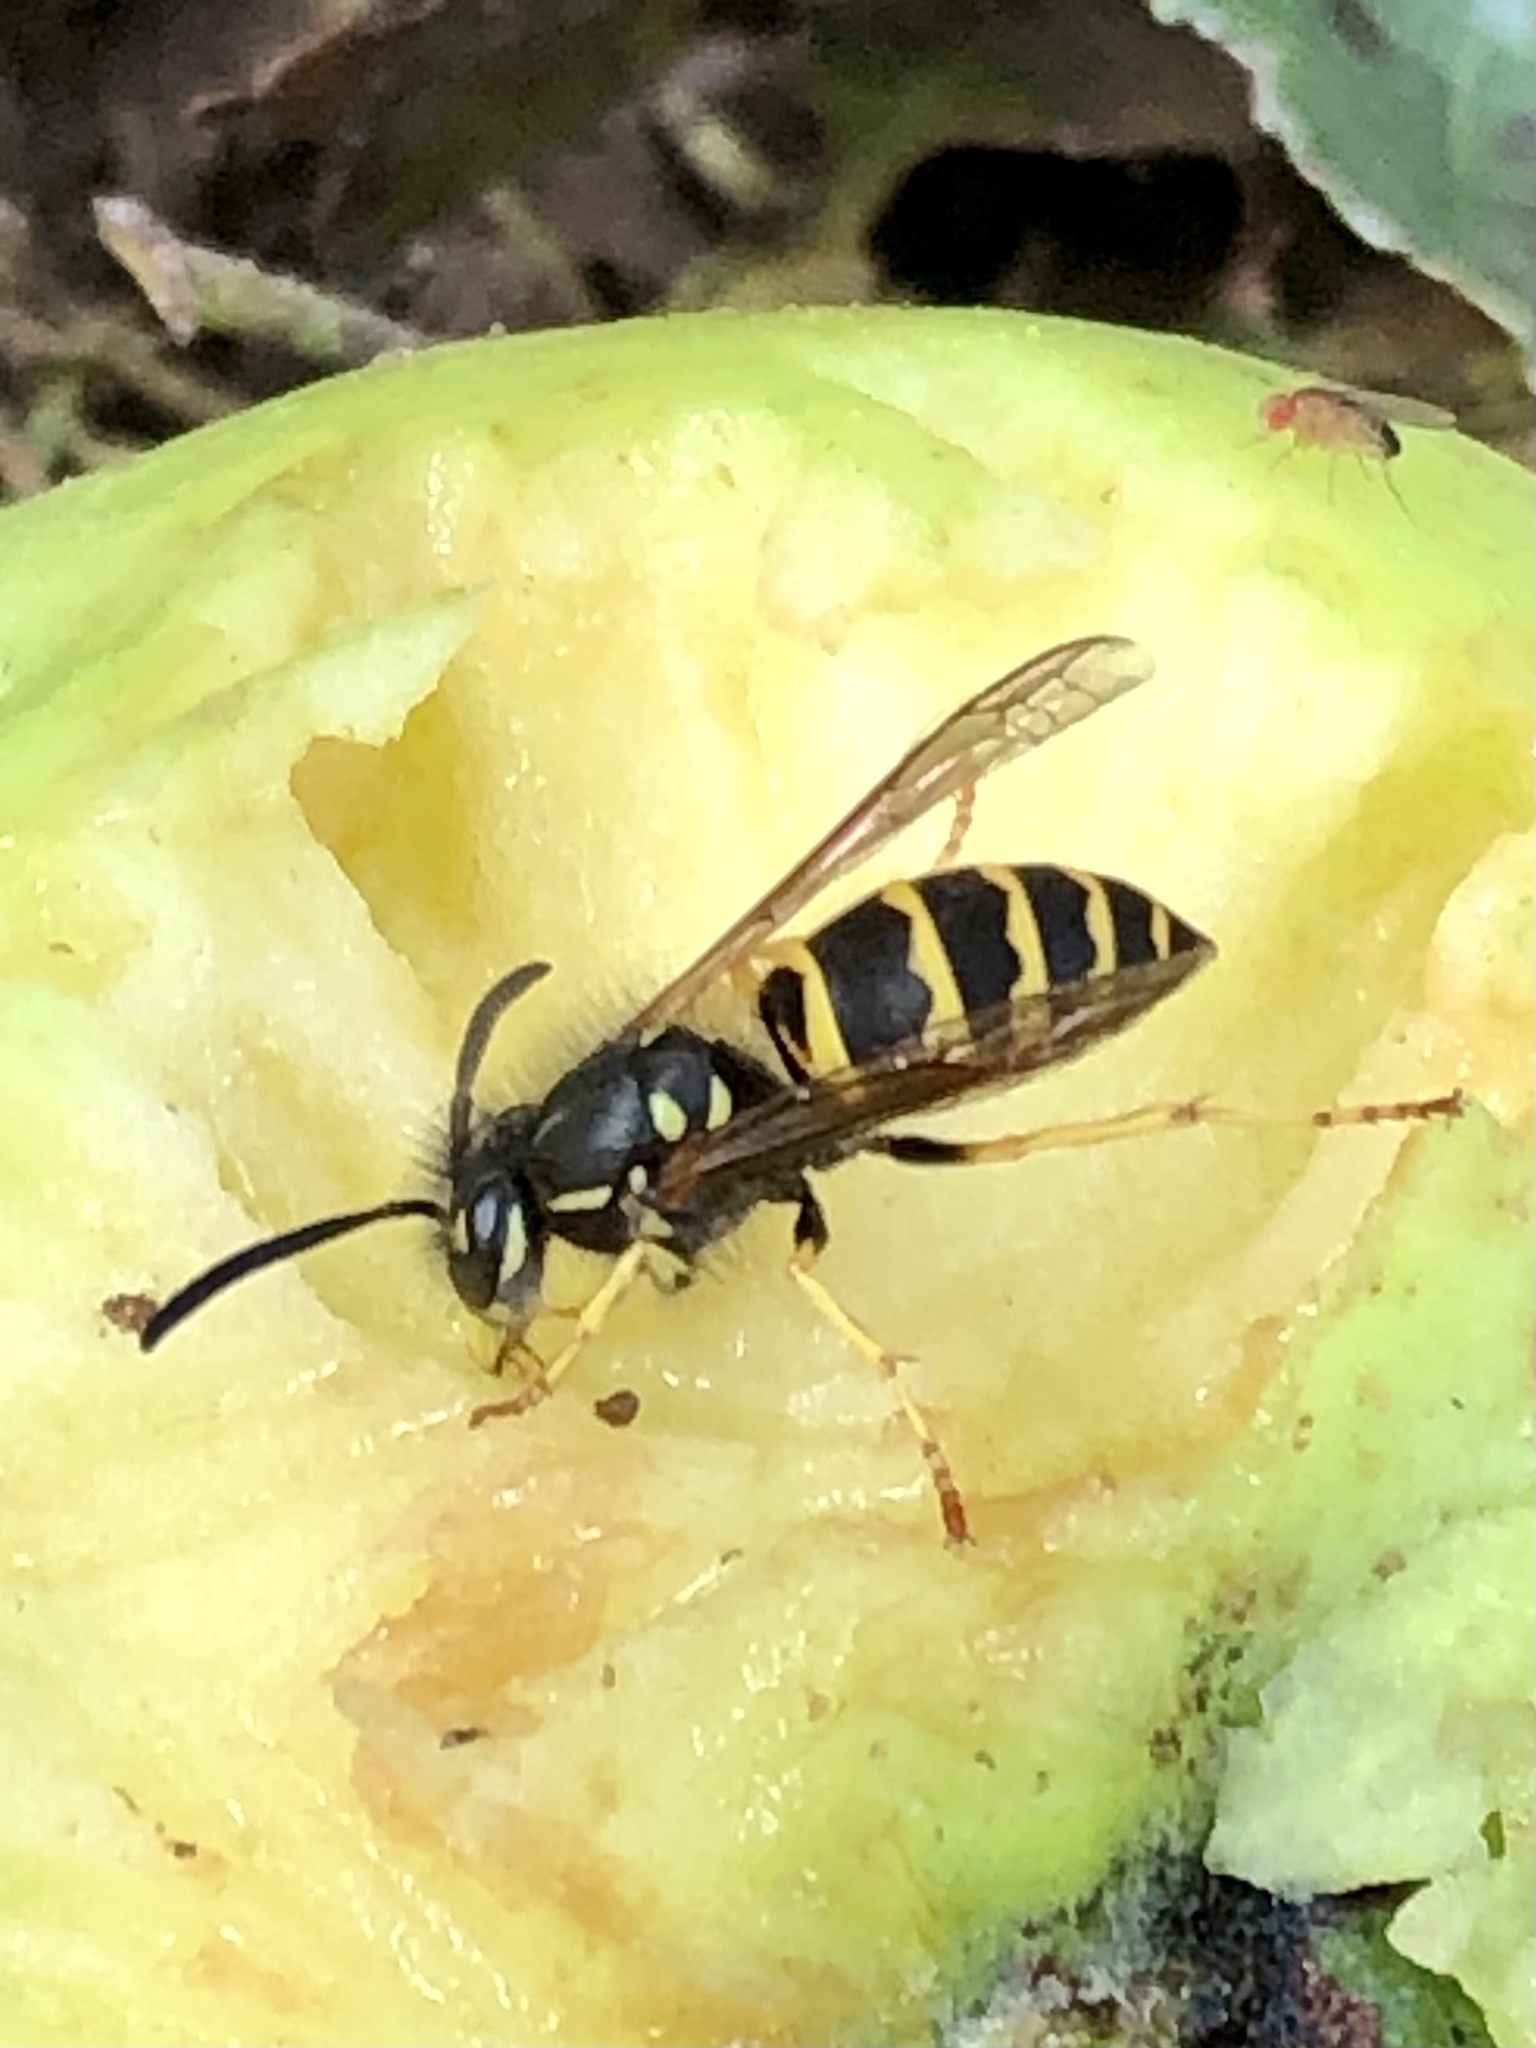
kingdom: Animalia
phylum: Arthropoda
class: Insecta
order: Hymenoptera
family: Vespidae
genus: Vespula
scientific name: Vespula alascensis
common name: Alaska yellowjacket
